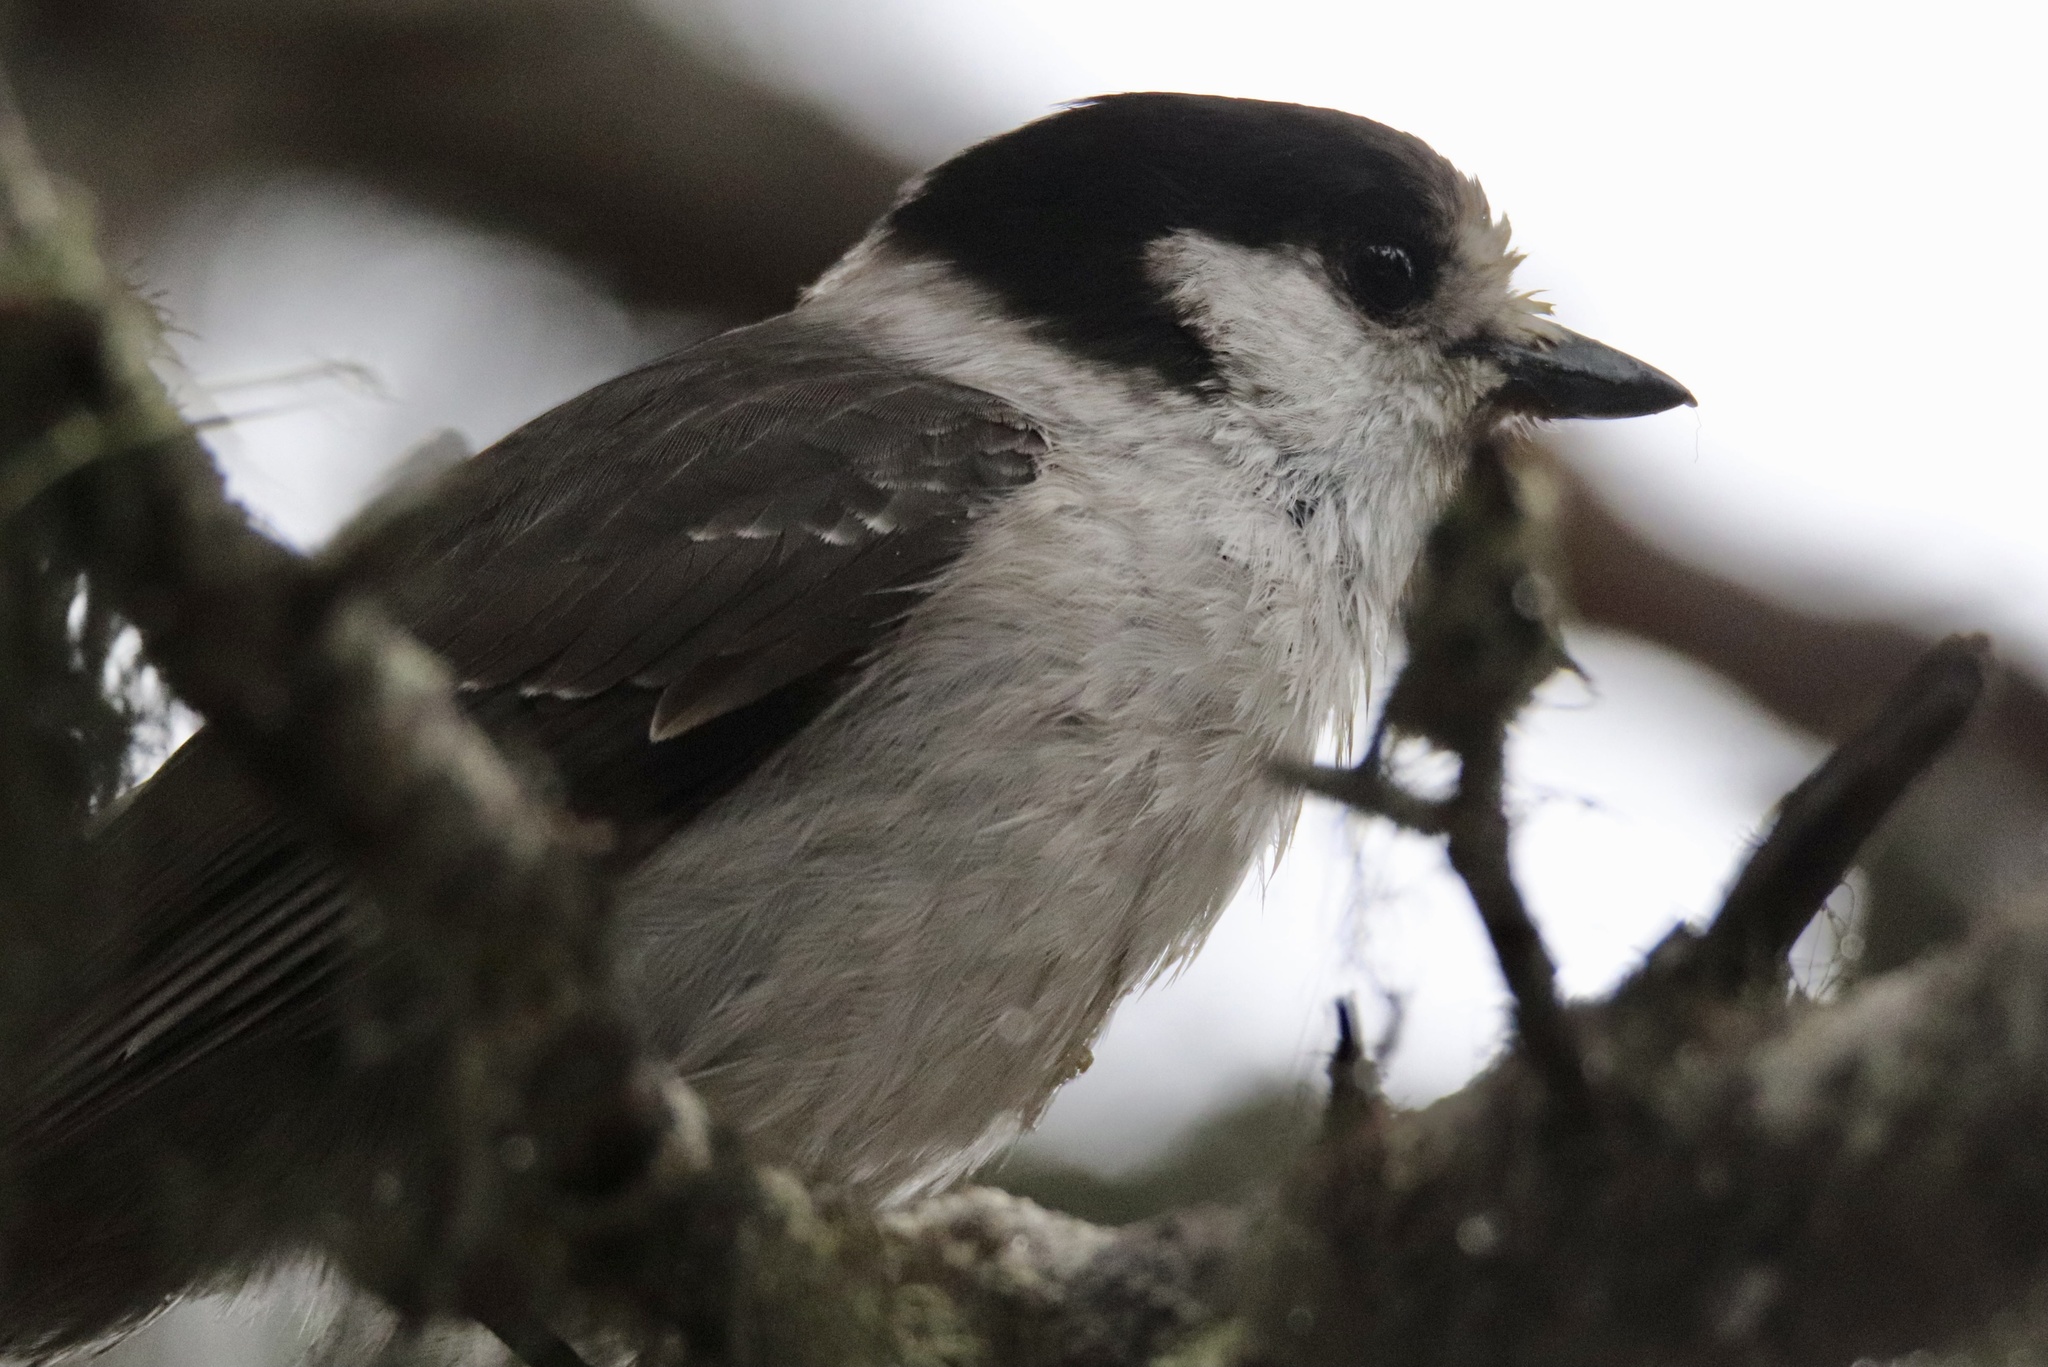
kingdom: Animalia
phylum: Chordata
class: Aves
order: Passeriformes
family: Corvidae
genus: Perisoreus
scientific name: Perisoreus canadensis
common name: Gray jay
